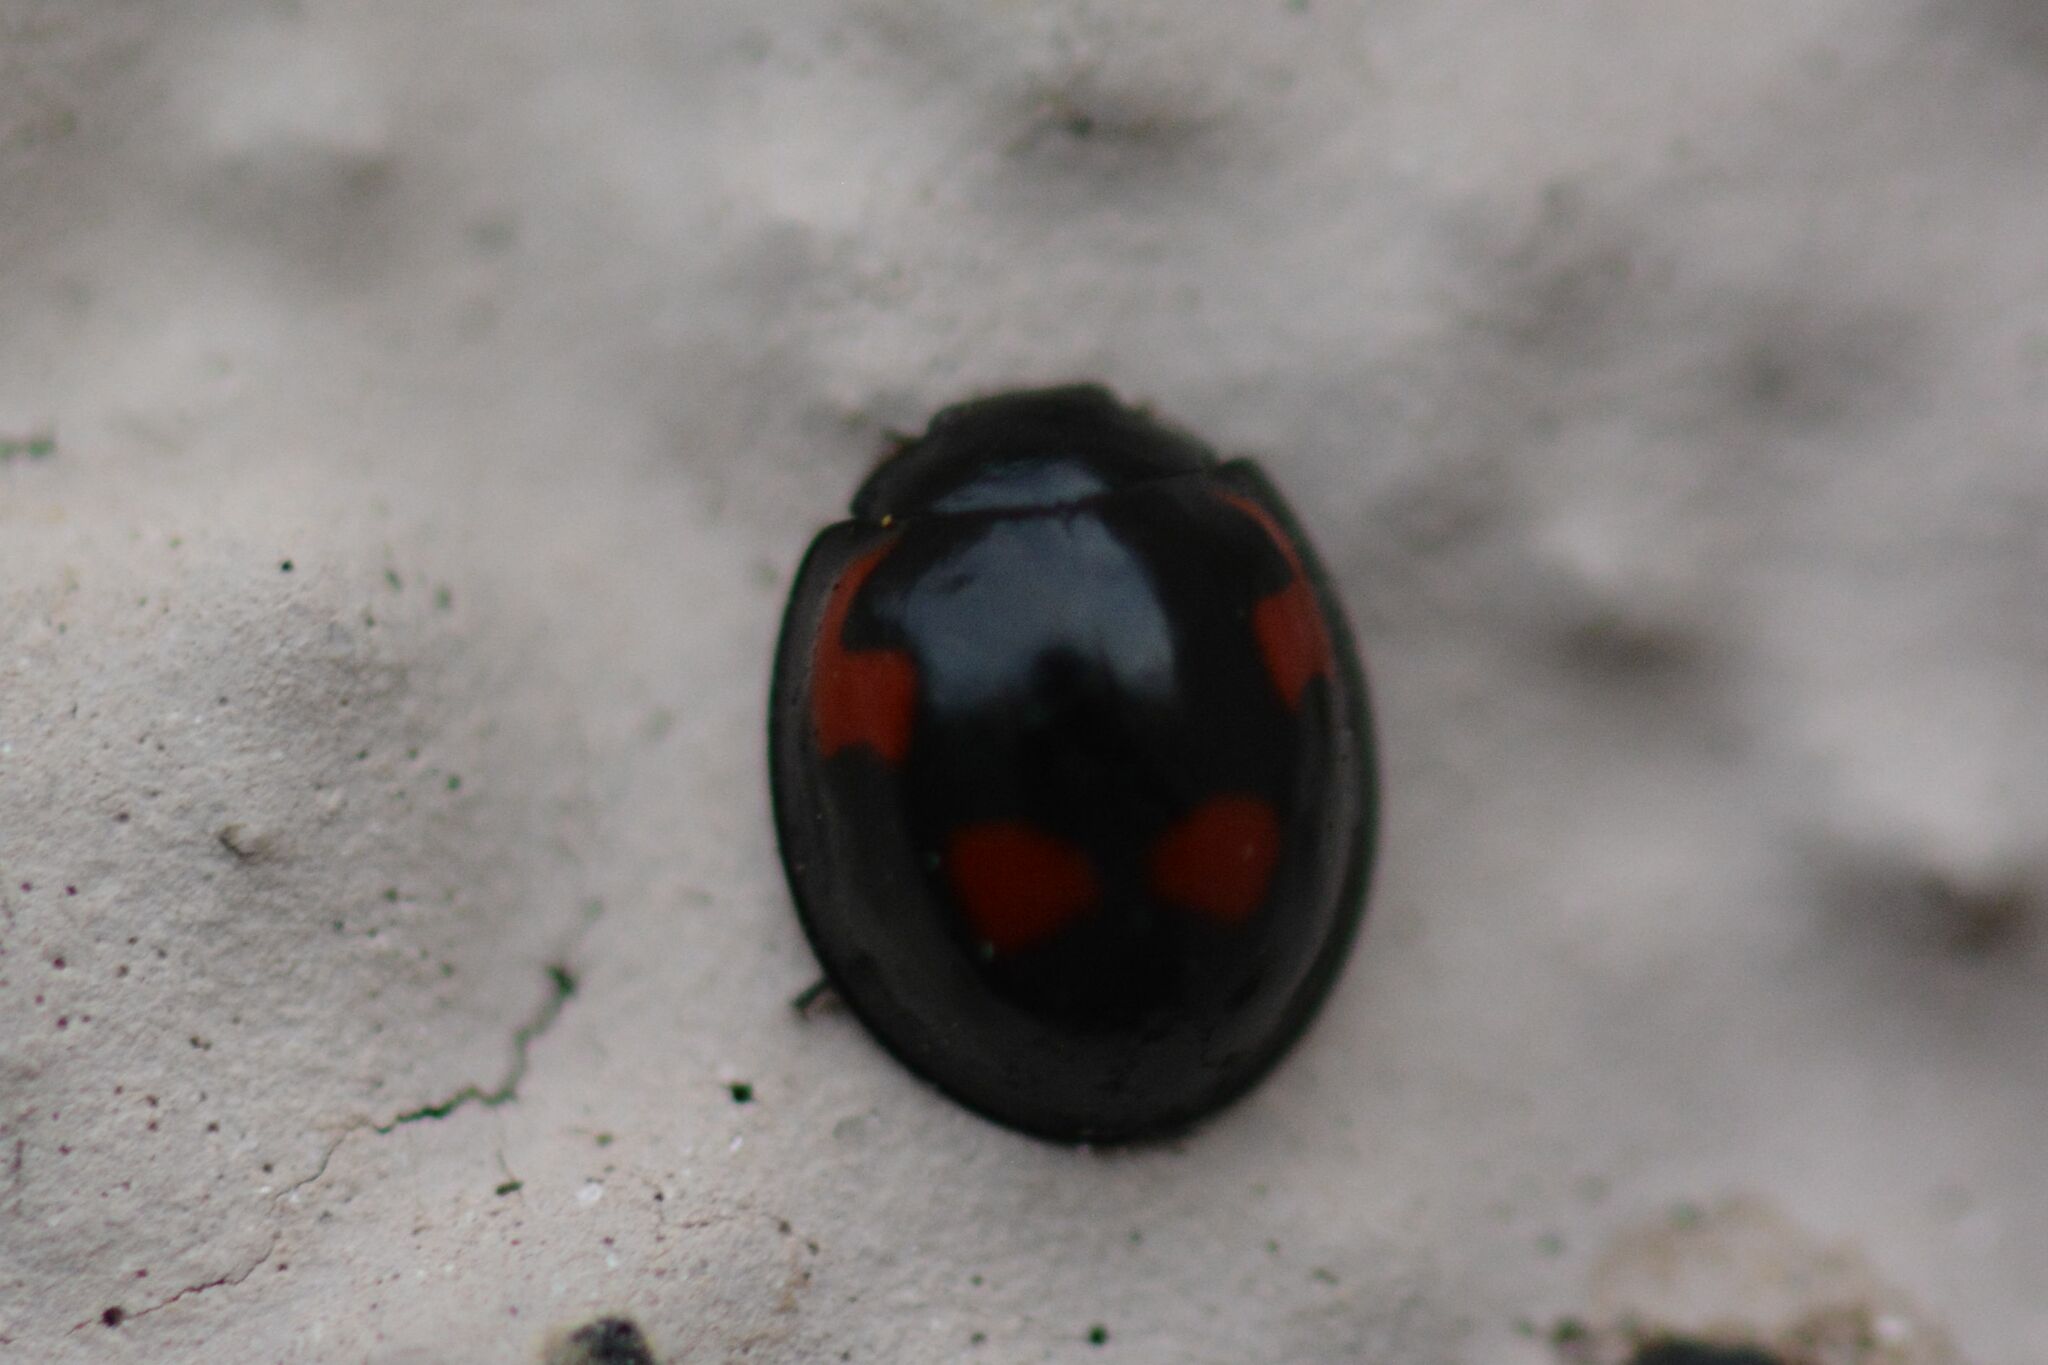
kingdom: Animalia
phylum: Arthropoda
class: Insecta
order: Coleoptera
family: Coccinellidae
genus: Brumus
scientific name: Brumus quadripustulatus
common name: Ladybird beetle
